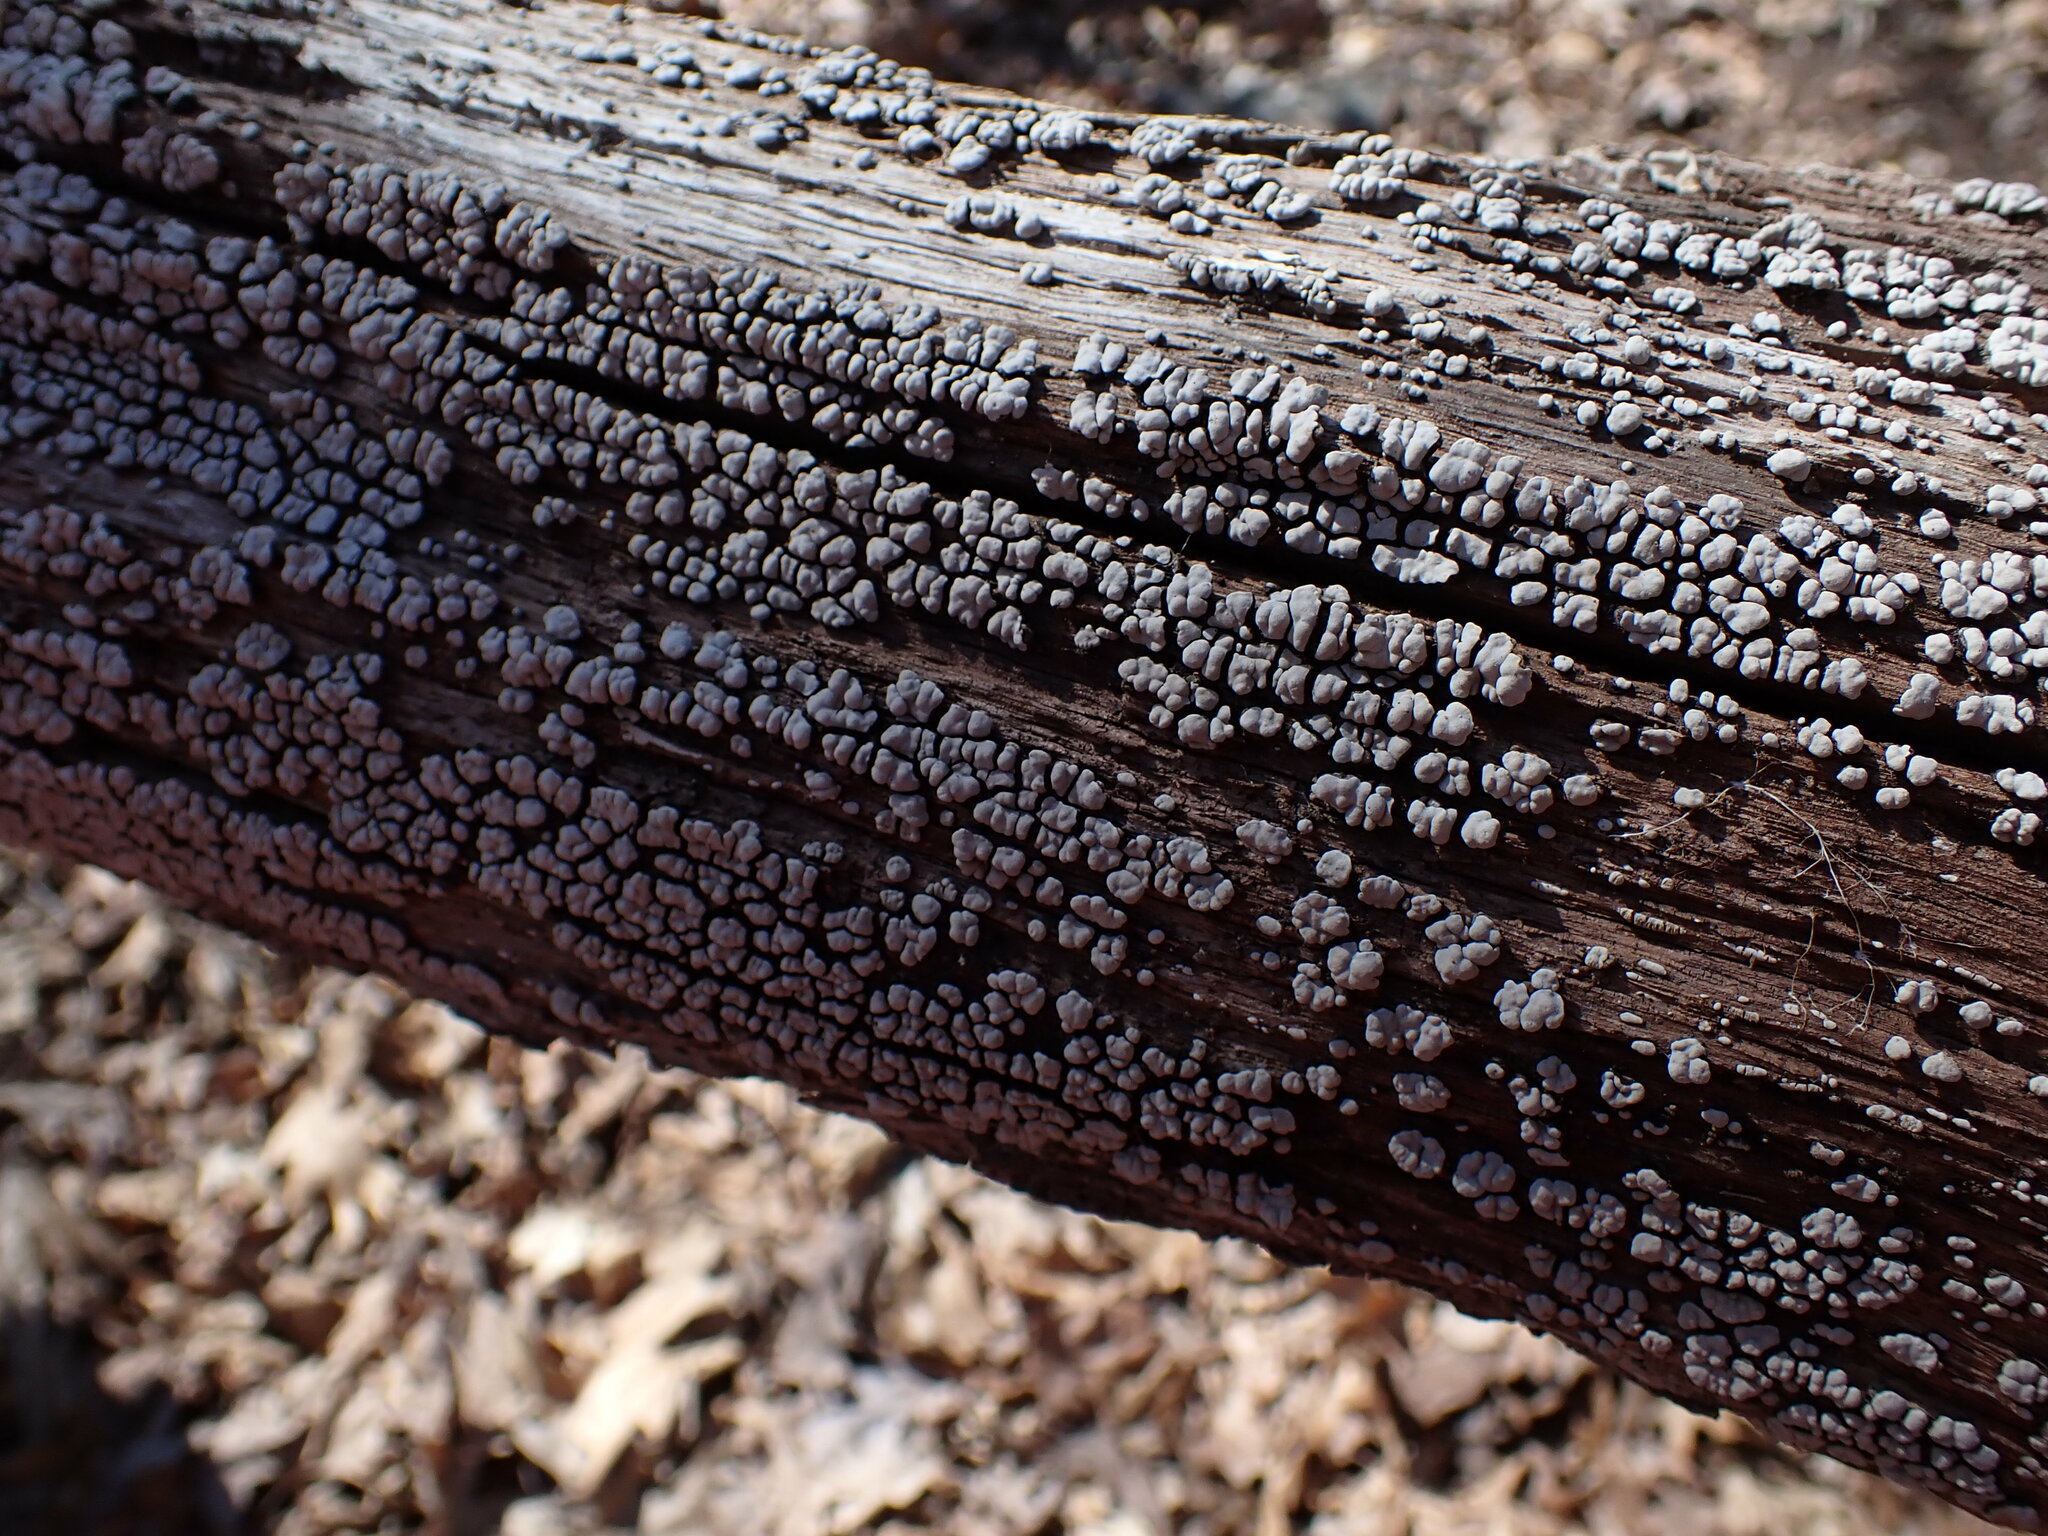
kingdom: Fungi
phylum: Basidiomycota
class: Agaricomycetes
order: Russulales
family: Stereaceae
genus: Xylobolus
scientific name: Xylobolus frustulatus
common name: Ceramic parchment
